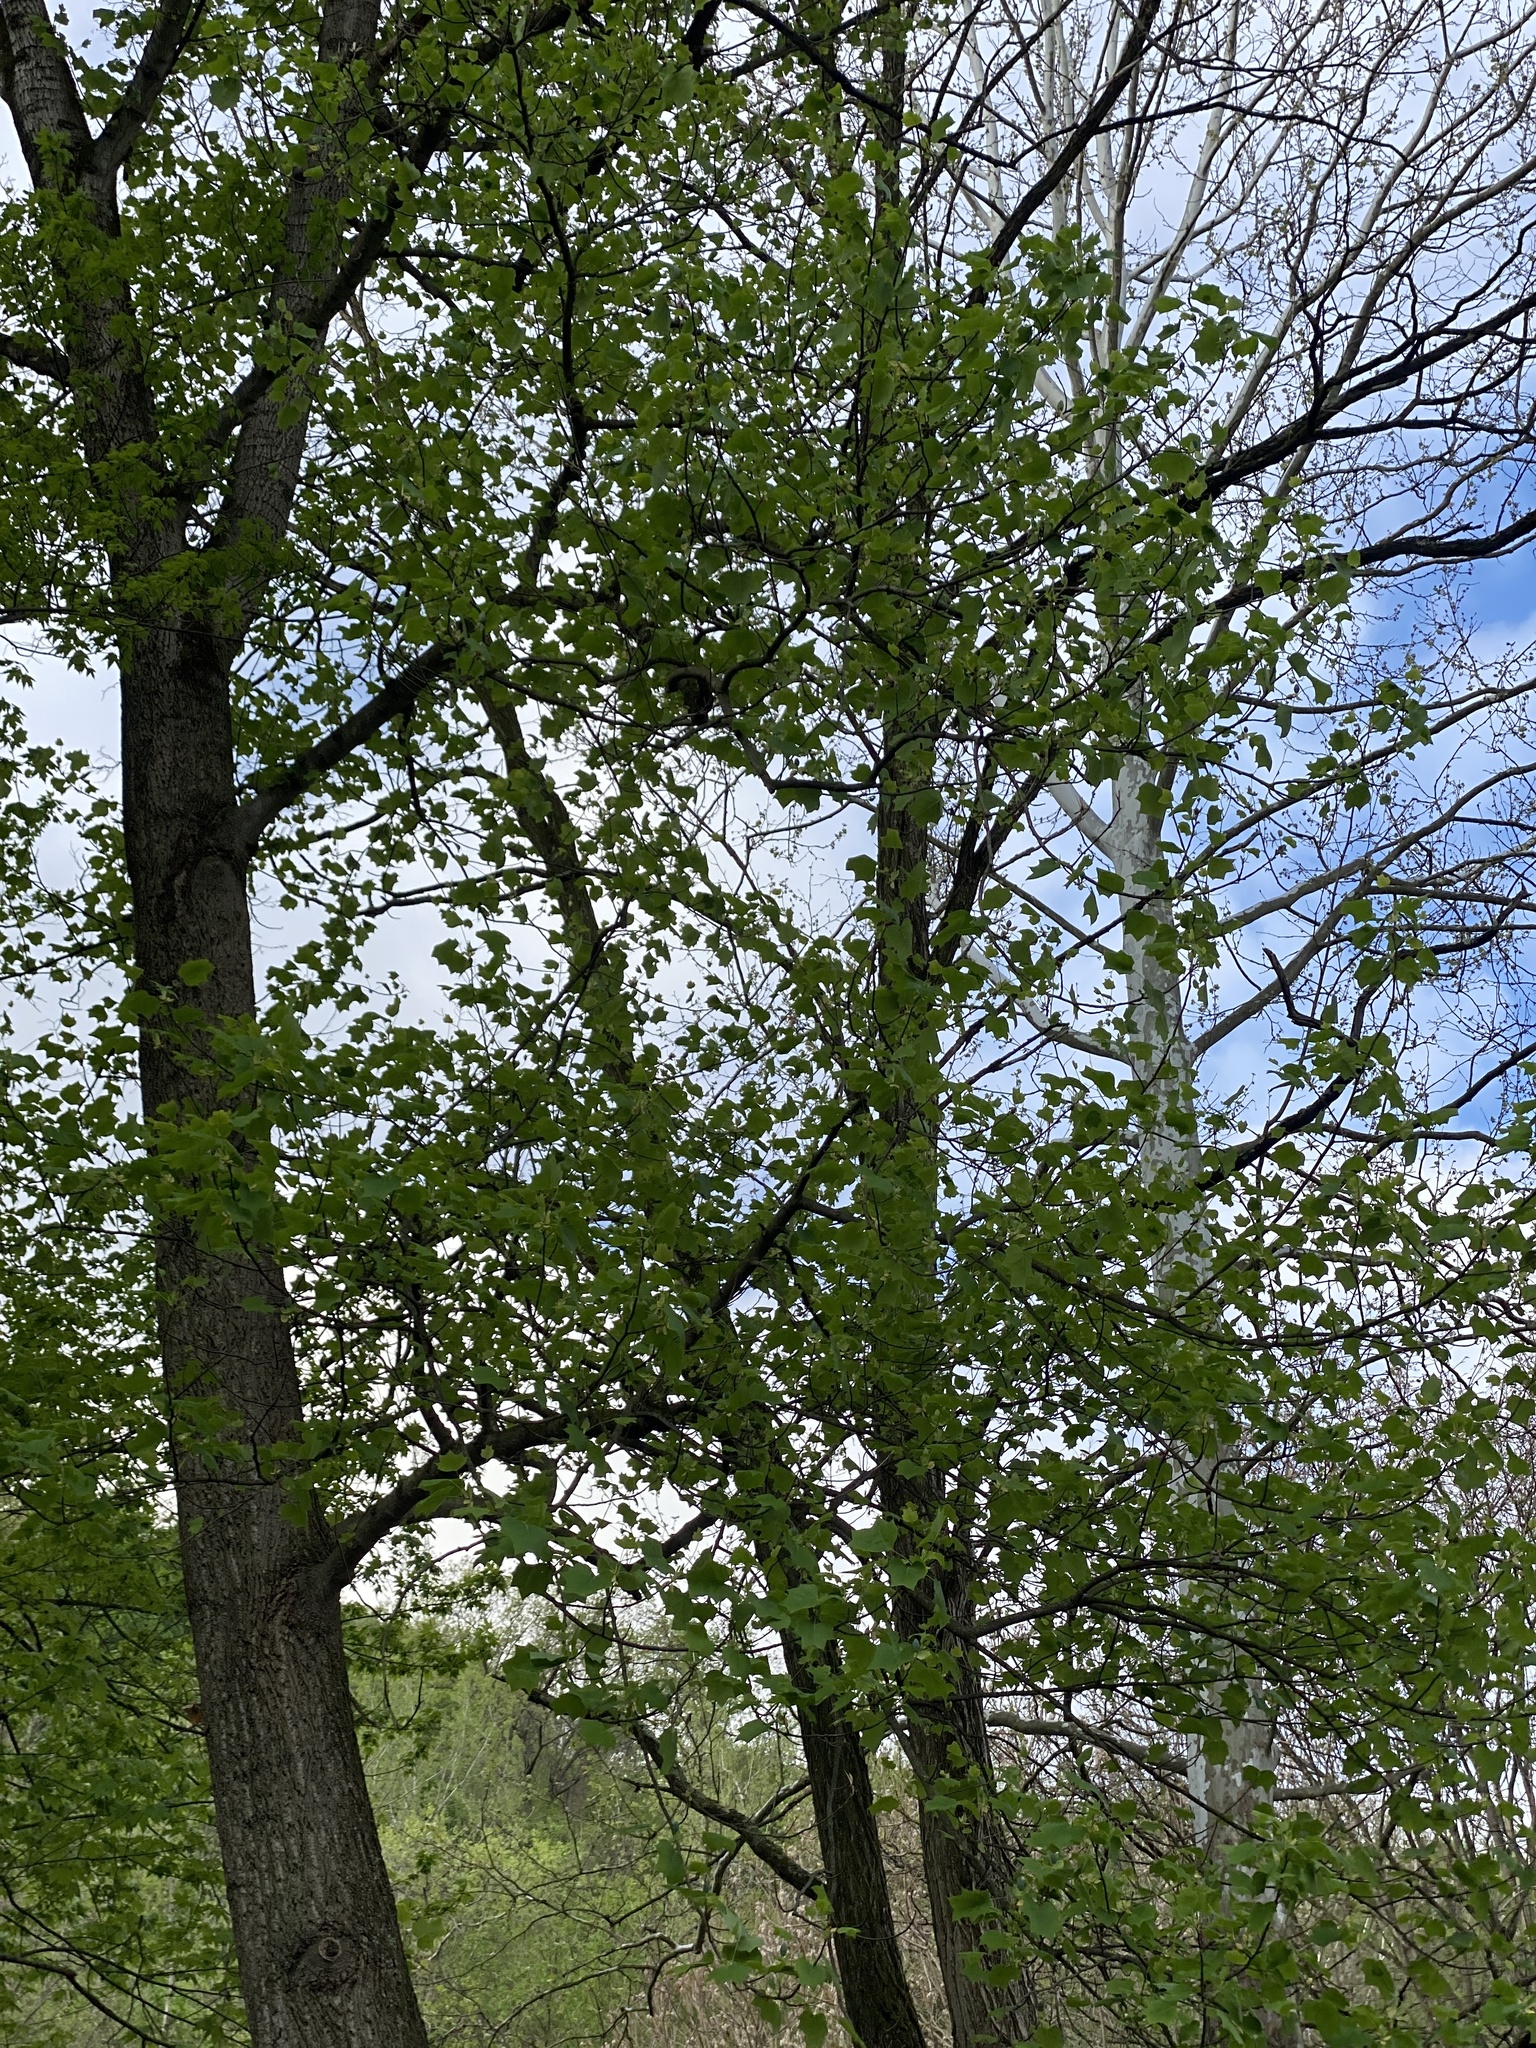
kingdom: Plantae
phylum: Tracheophyta
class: Magnoliopsida
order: Magnoliales
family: Magnoliaceae
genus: Liriodendron
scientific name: Liriodendron tulipifera
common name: Tulip tree
